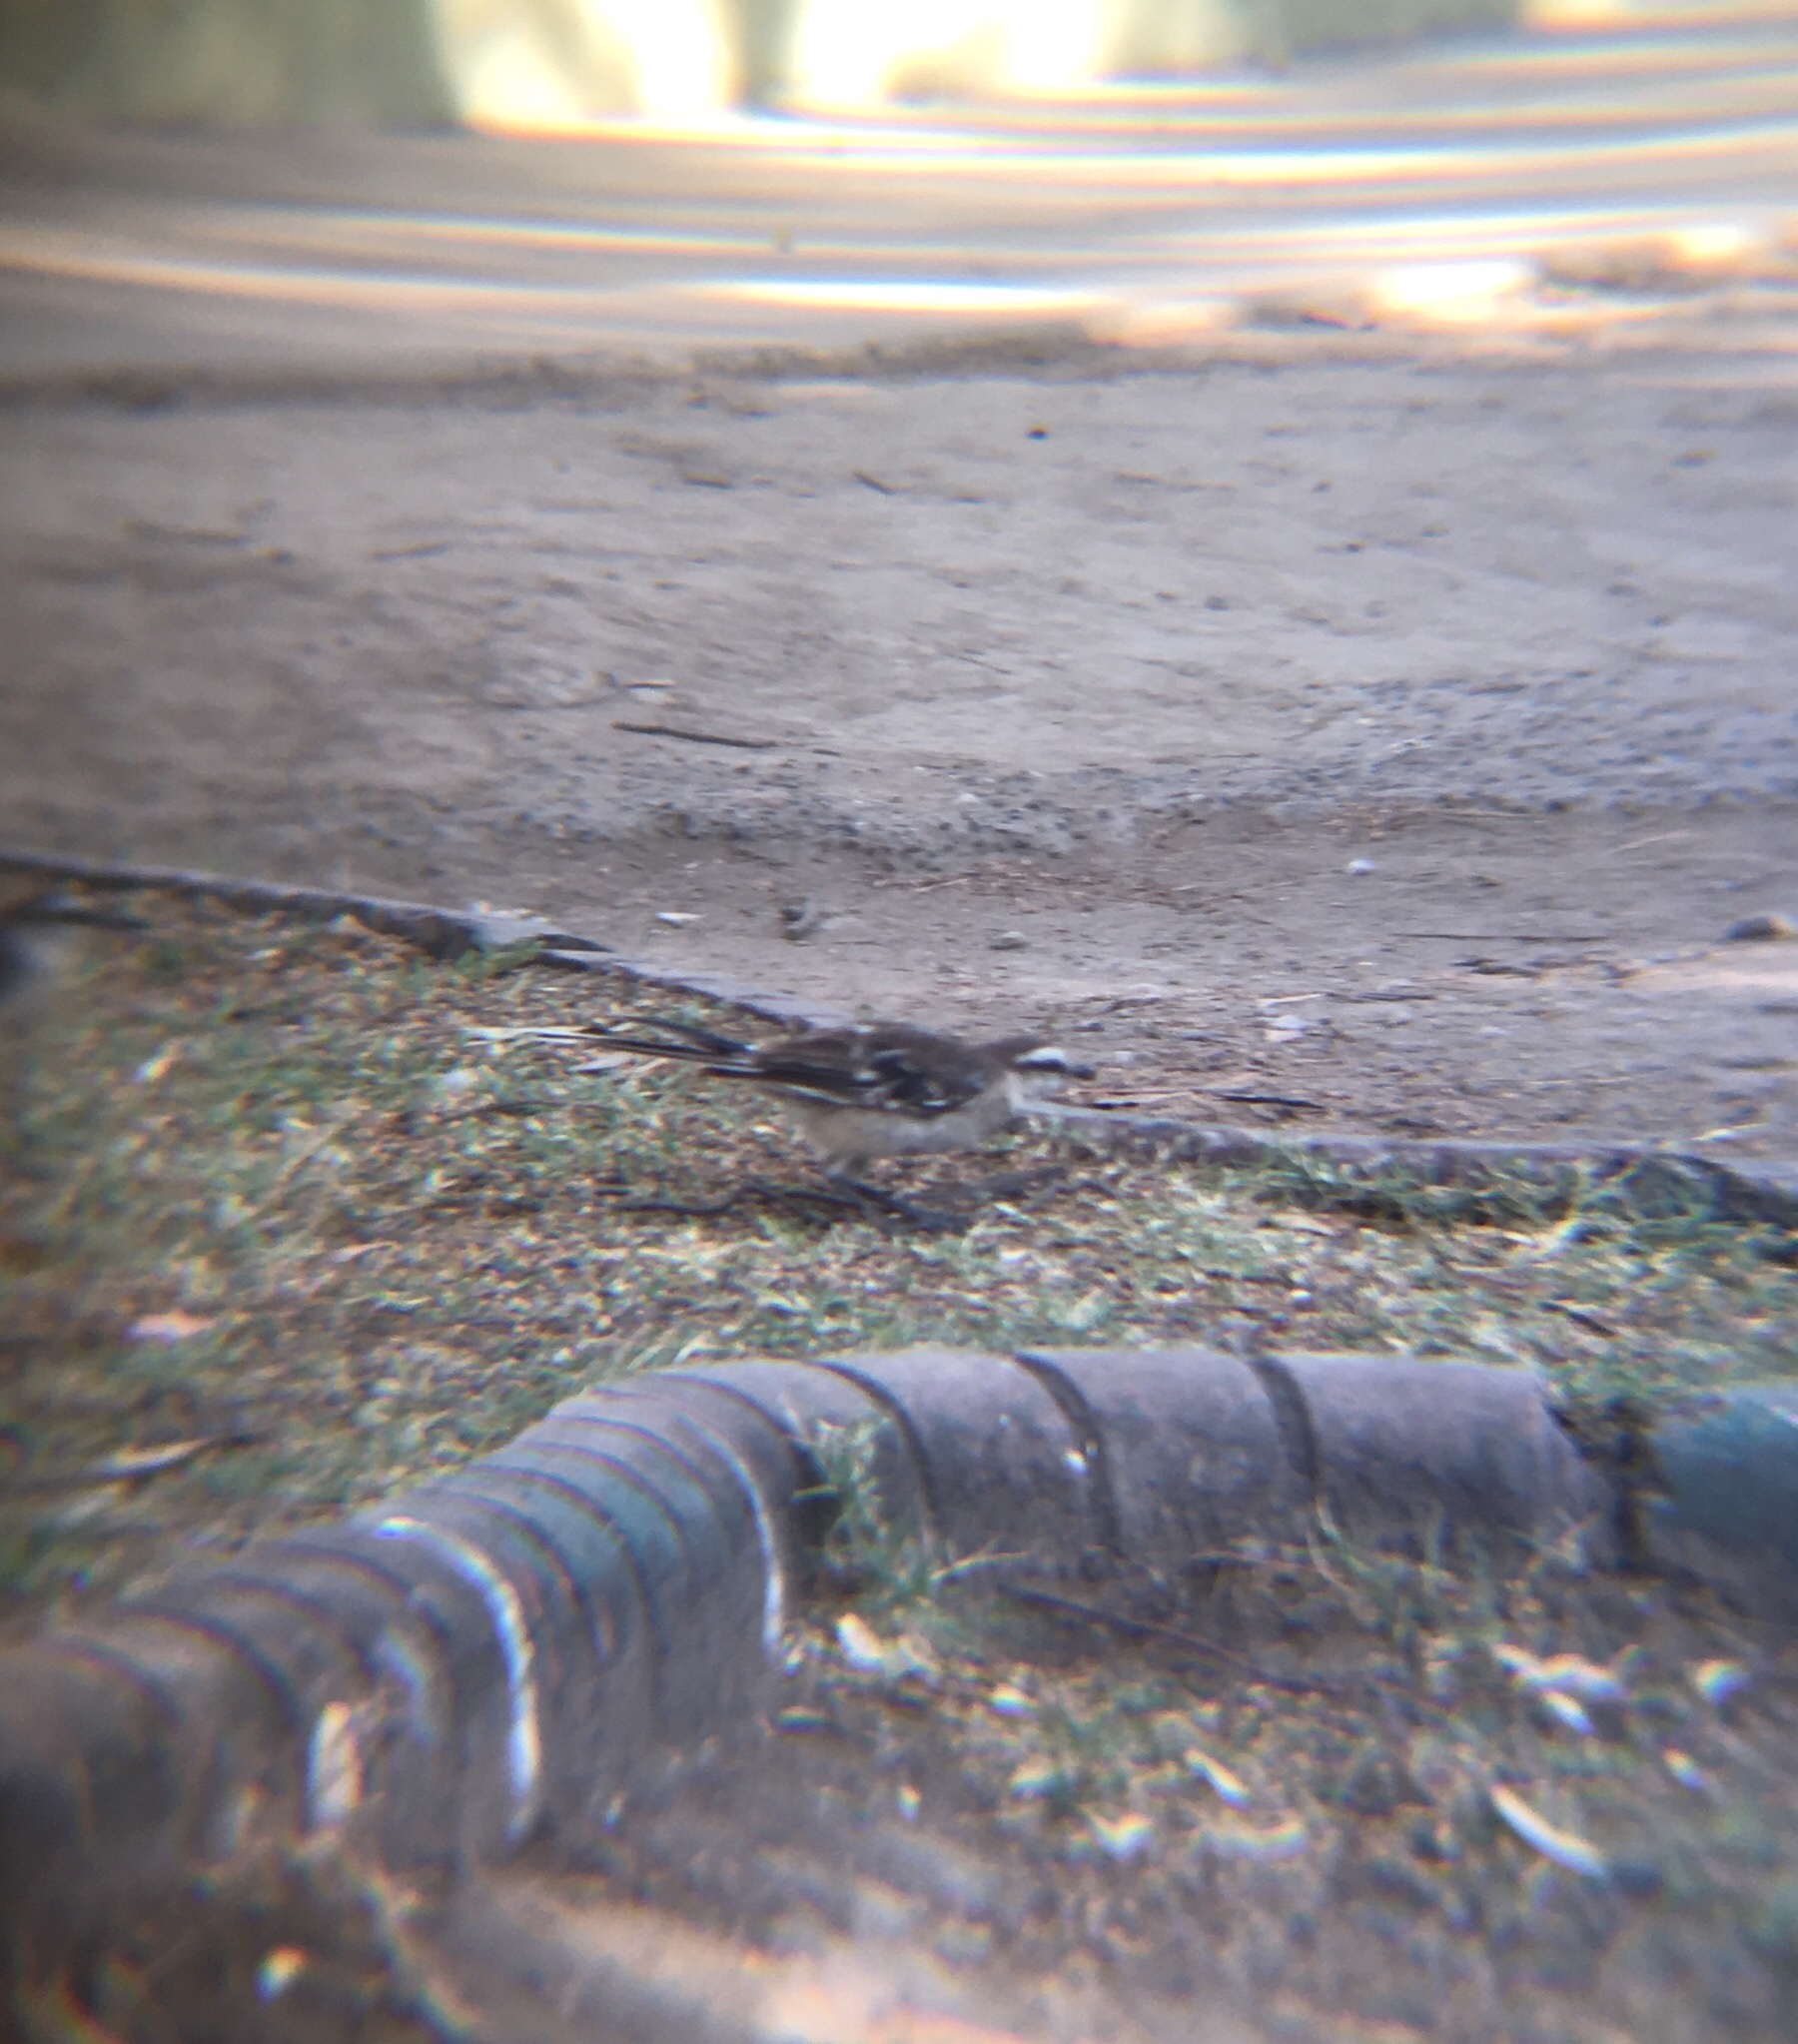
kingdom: Animalia
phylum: Chordata
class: Aves
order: Passeriformes
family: Mimidae
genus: Mimus
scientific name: Mimus saturninus
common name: Chalk-browed mockingbird
